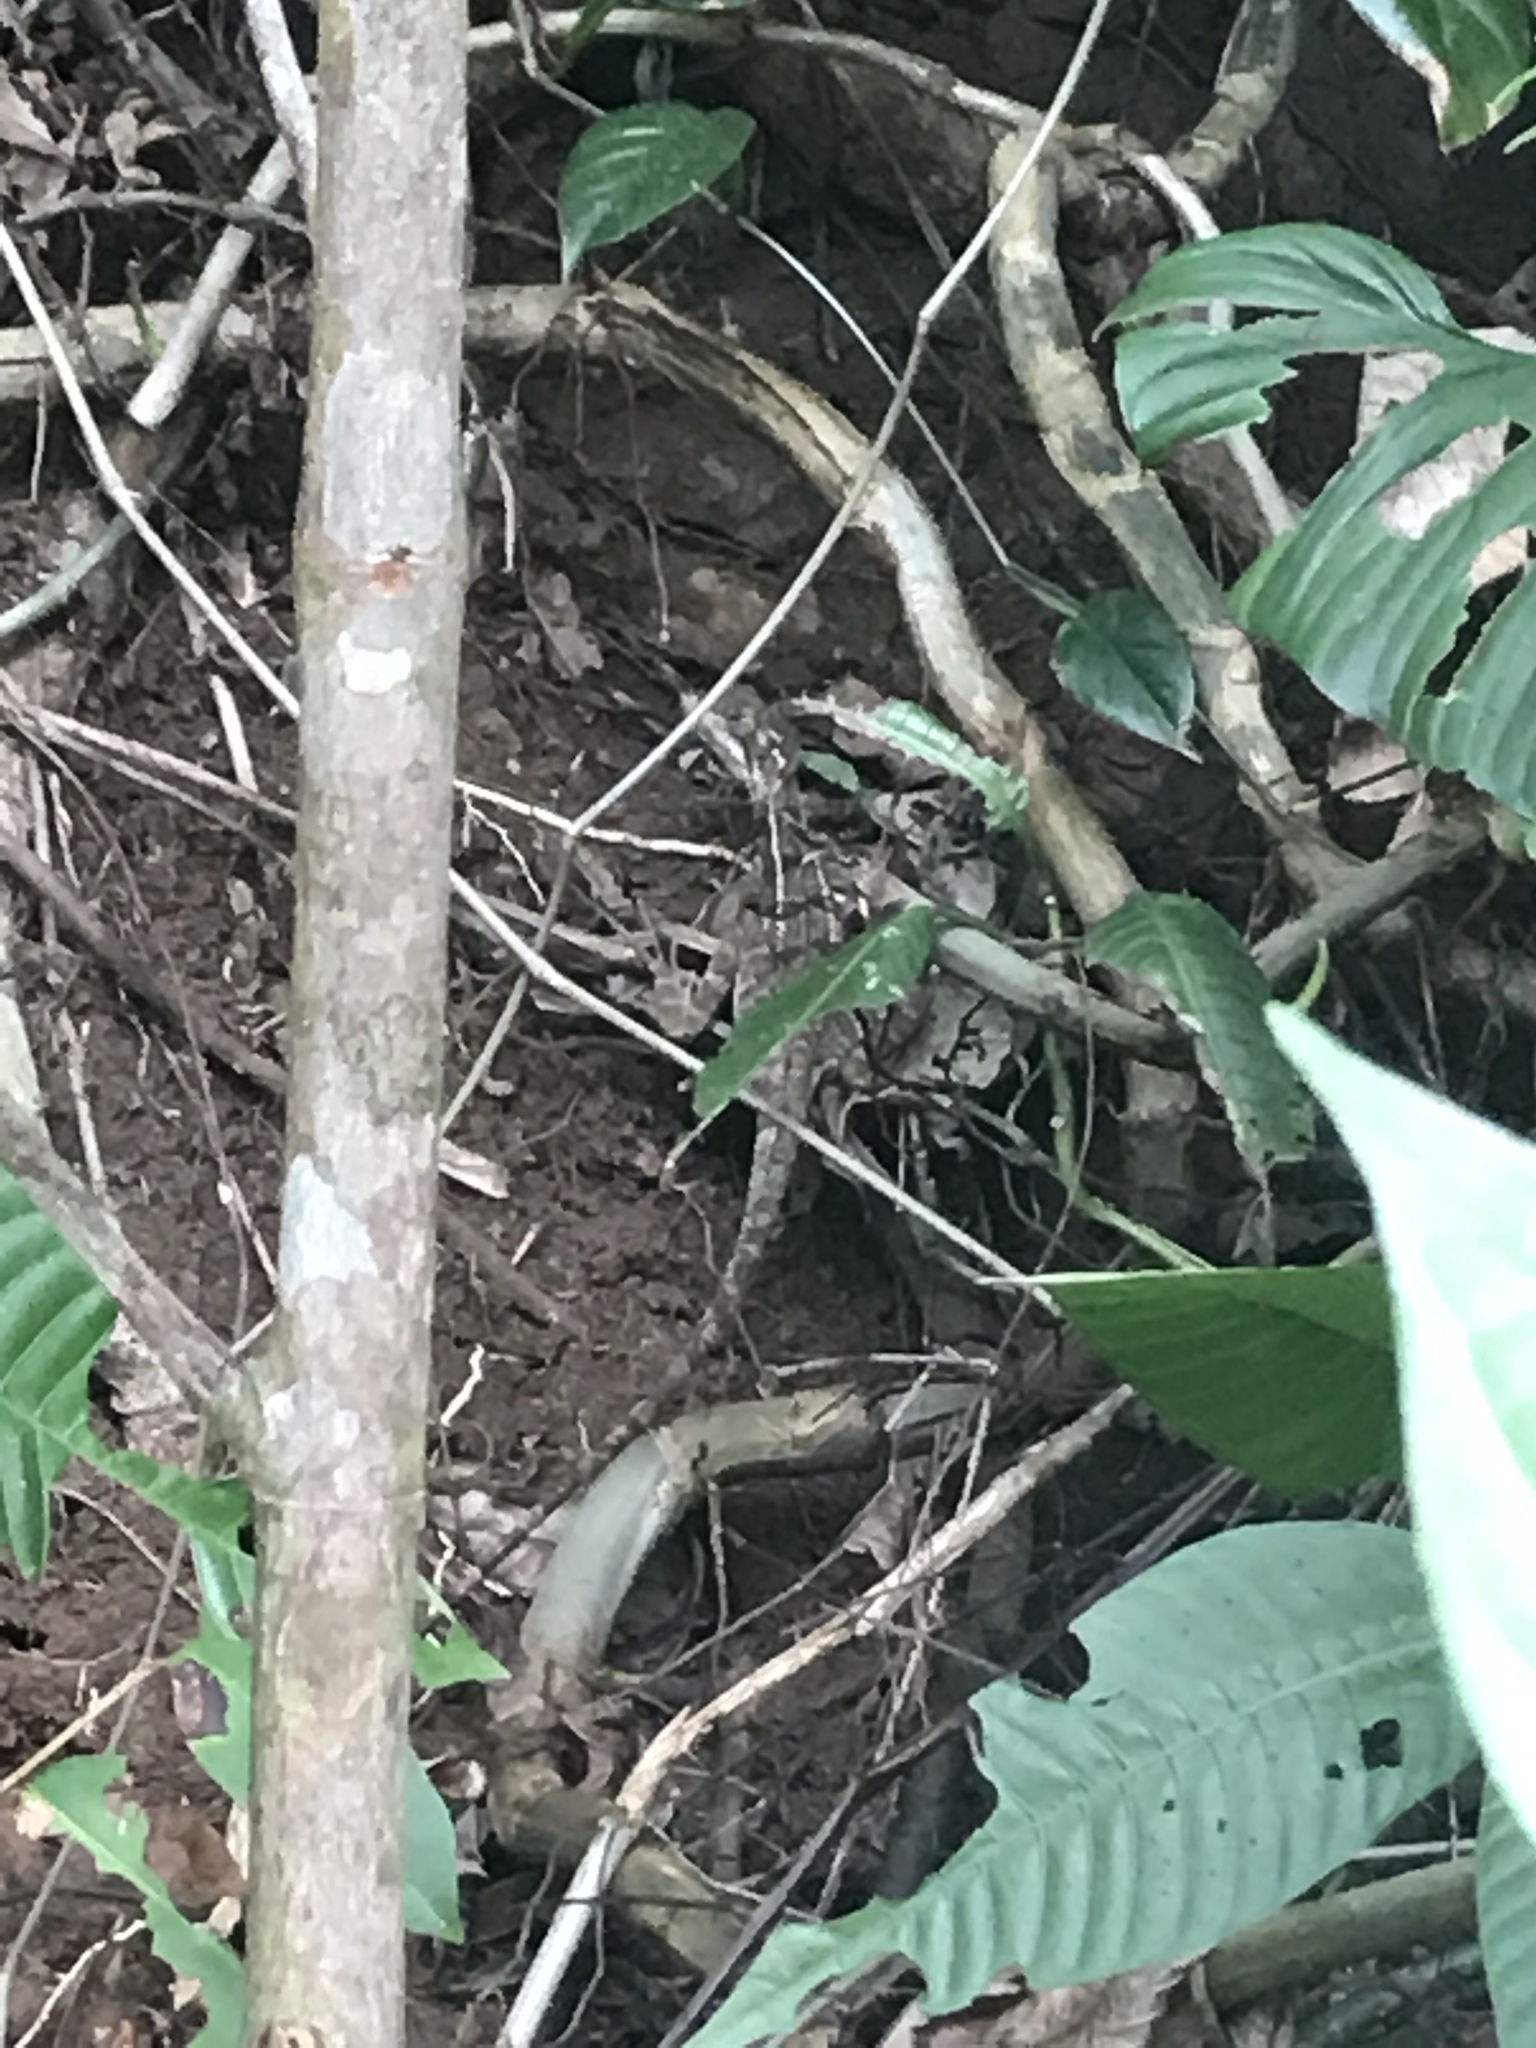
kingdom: Animalia
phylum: Chordata
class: Squamata
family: Corytophanidae
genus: Basiliscus
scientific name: Basiliscus basiliscus
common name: Common basilisk
